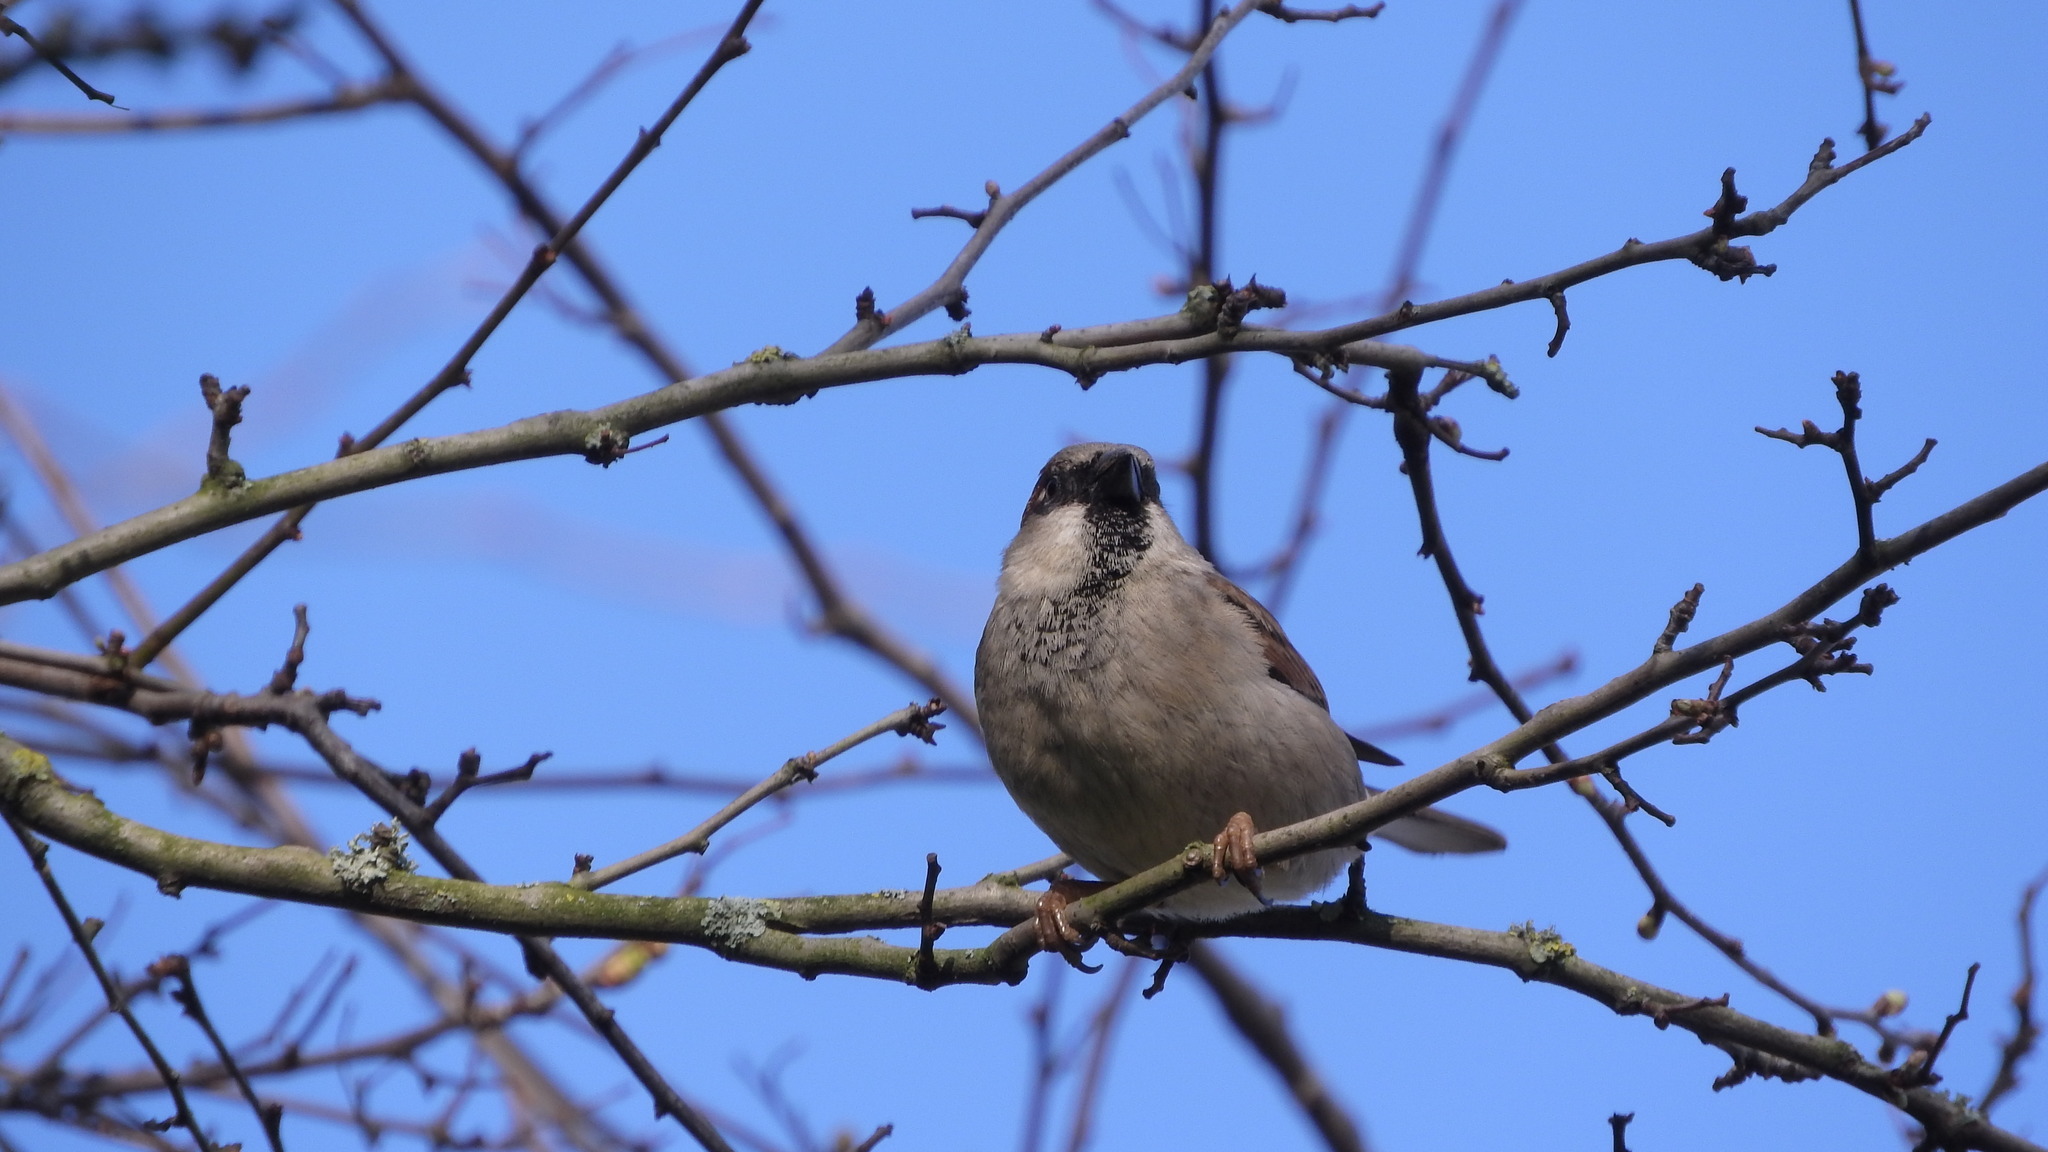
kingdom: Animalia
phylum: Chordata
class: Aves
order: Passeriformes
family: Passeridae
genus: Passer
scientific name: Passer domesticus
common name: House sparrow
